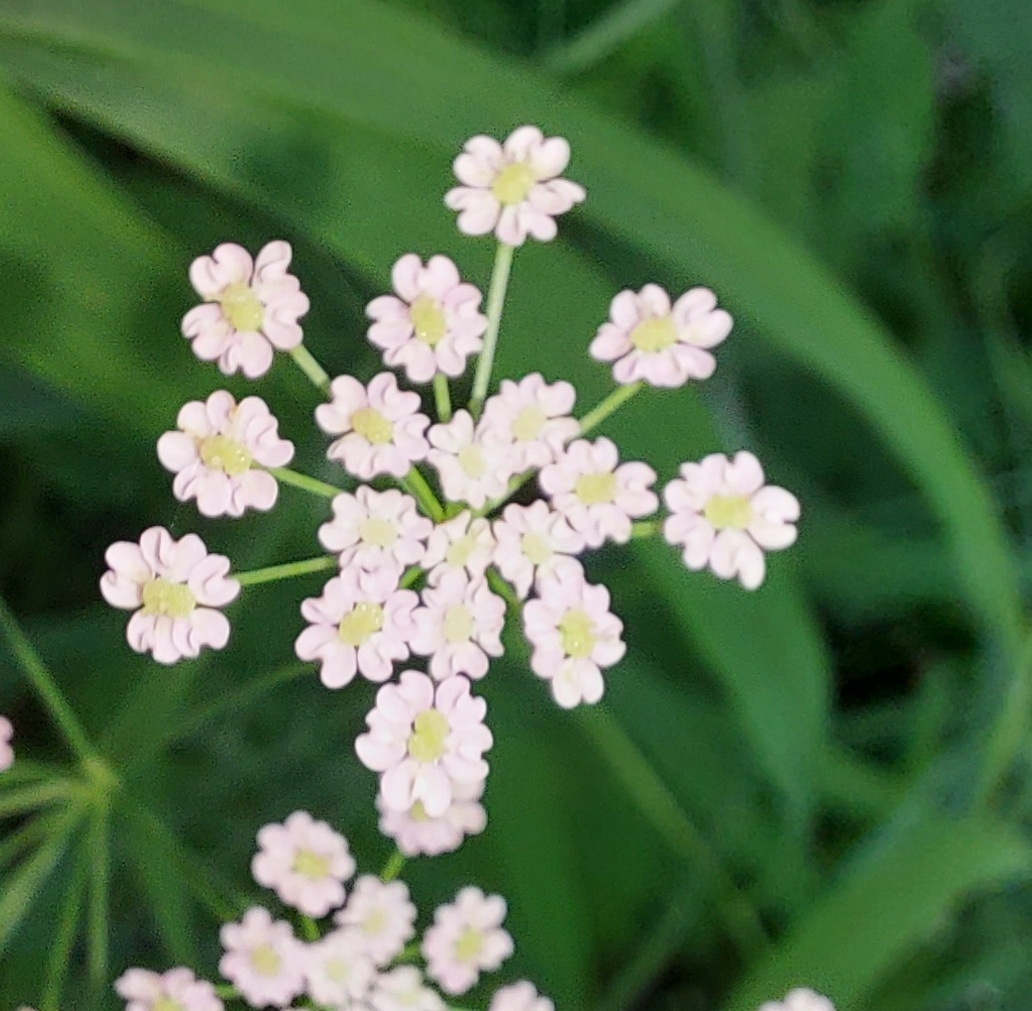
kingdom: Plantae
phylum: Tracheophyta
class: Magnoliopsida
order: Apiales
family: Apiaceae
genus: Carum
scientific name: Carum carvi
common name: Caraway
